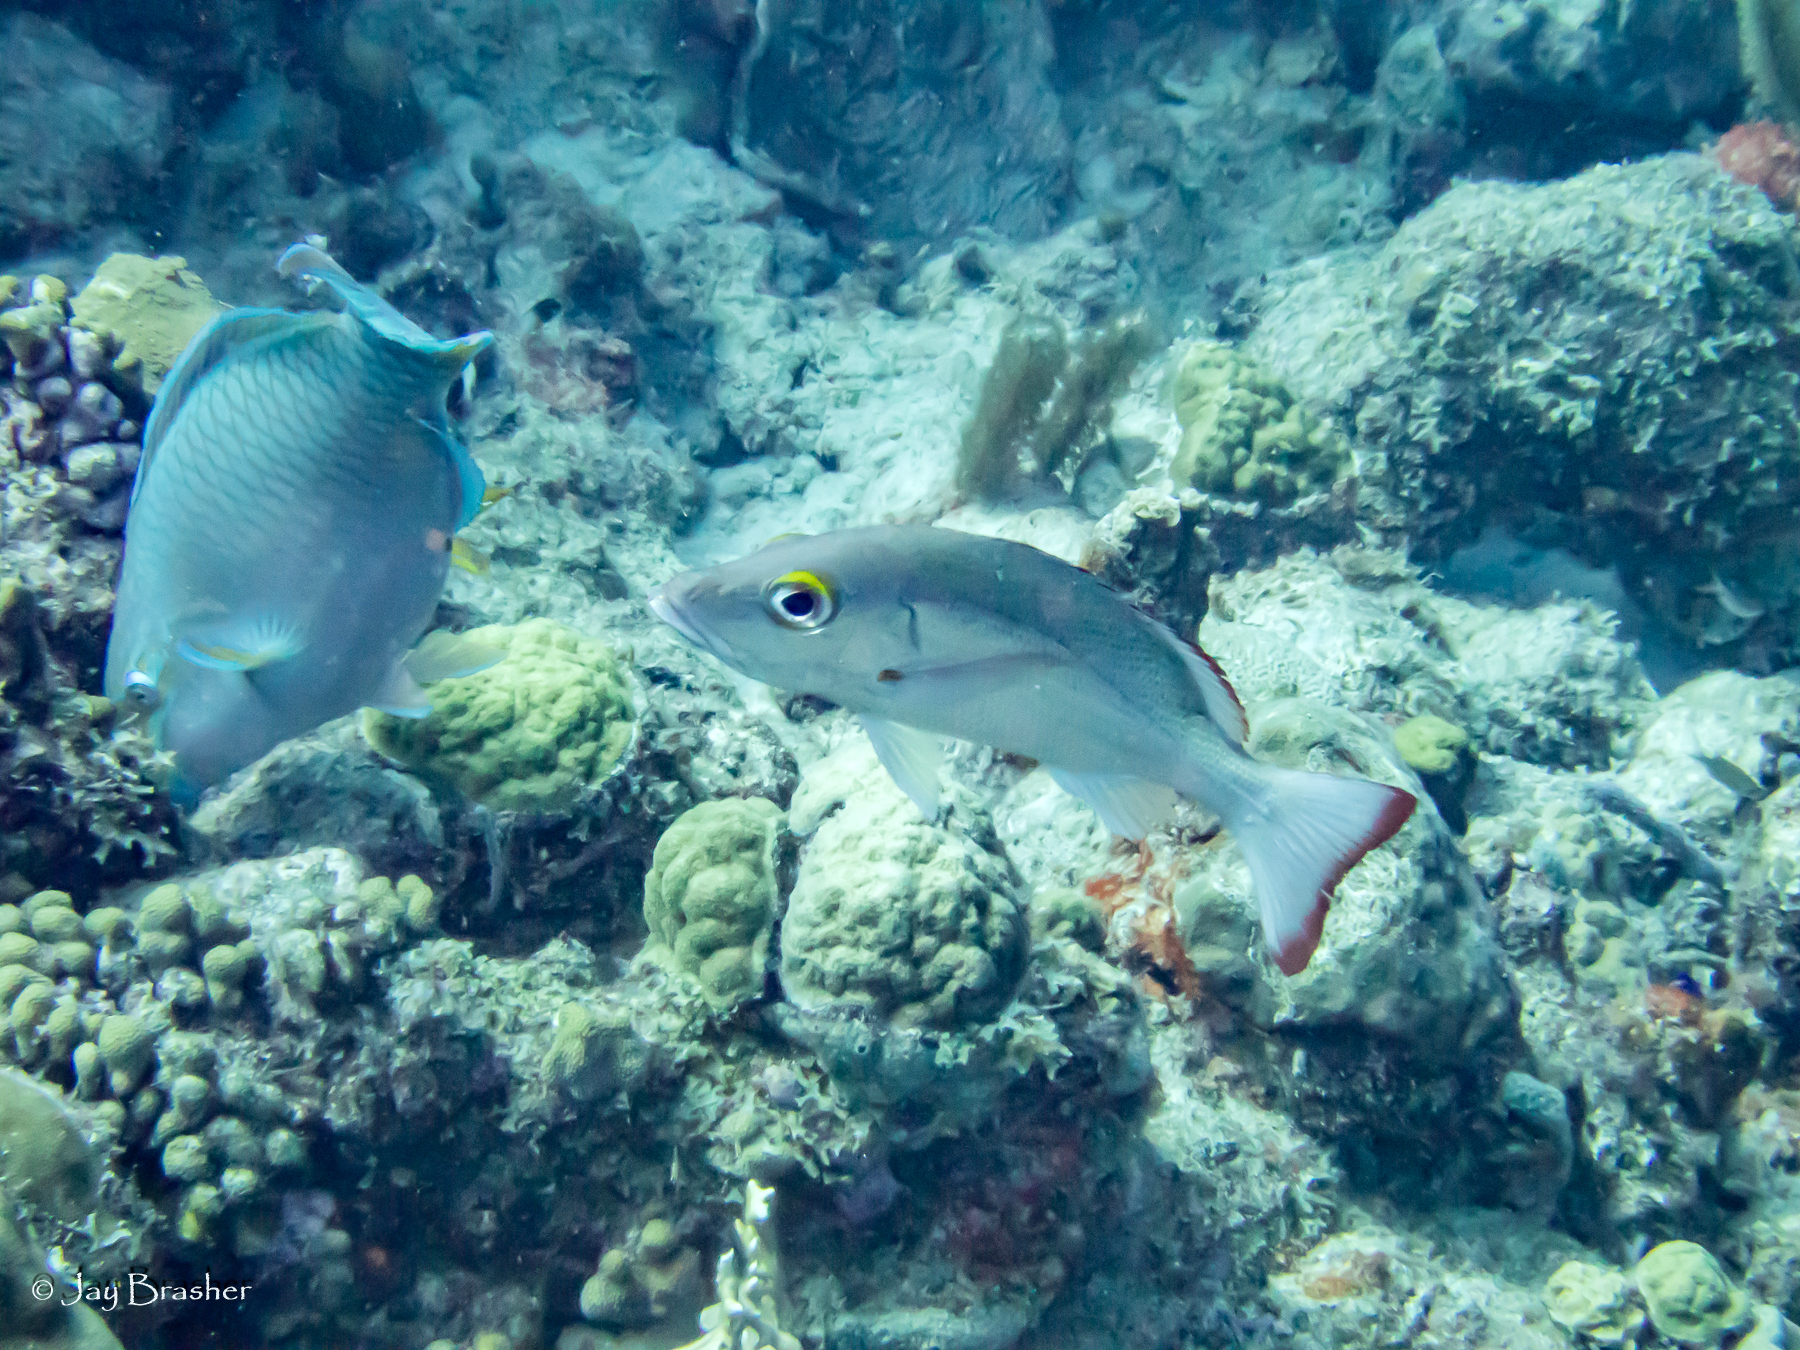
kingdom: Animalia
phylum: Chordata
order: Perciformes
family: Lutjanidae
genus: Lutjanus
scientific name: Lutjanus mahogoni
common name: Spot snapper
